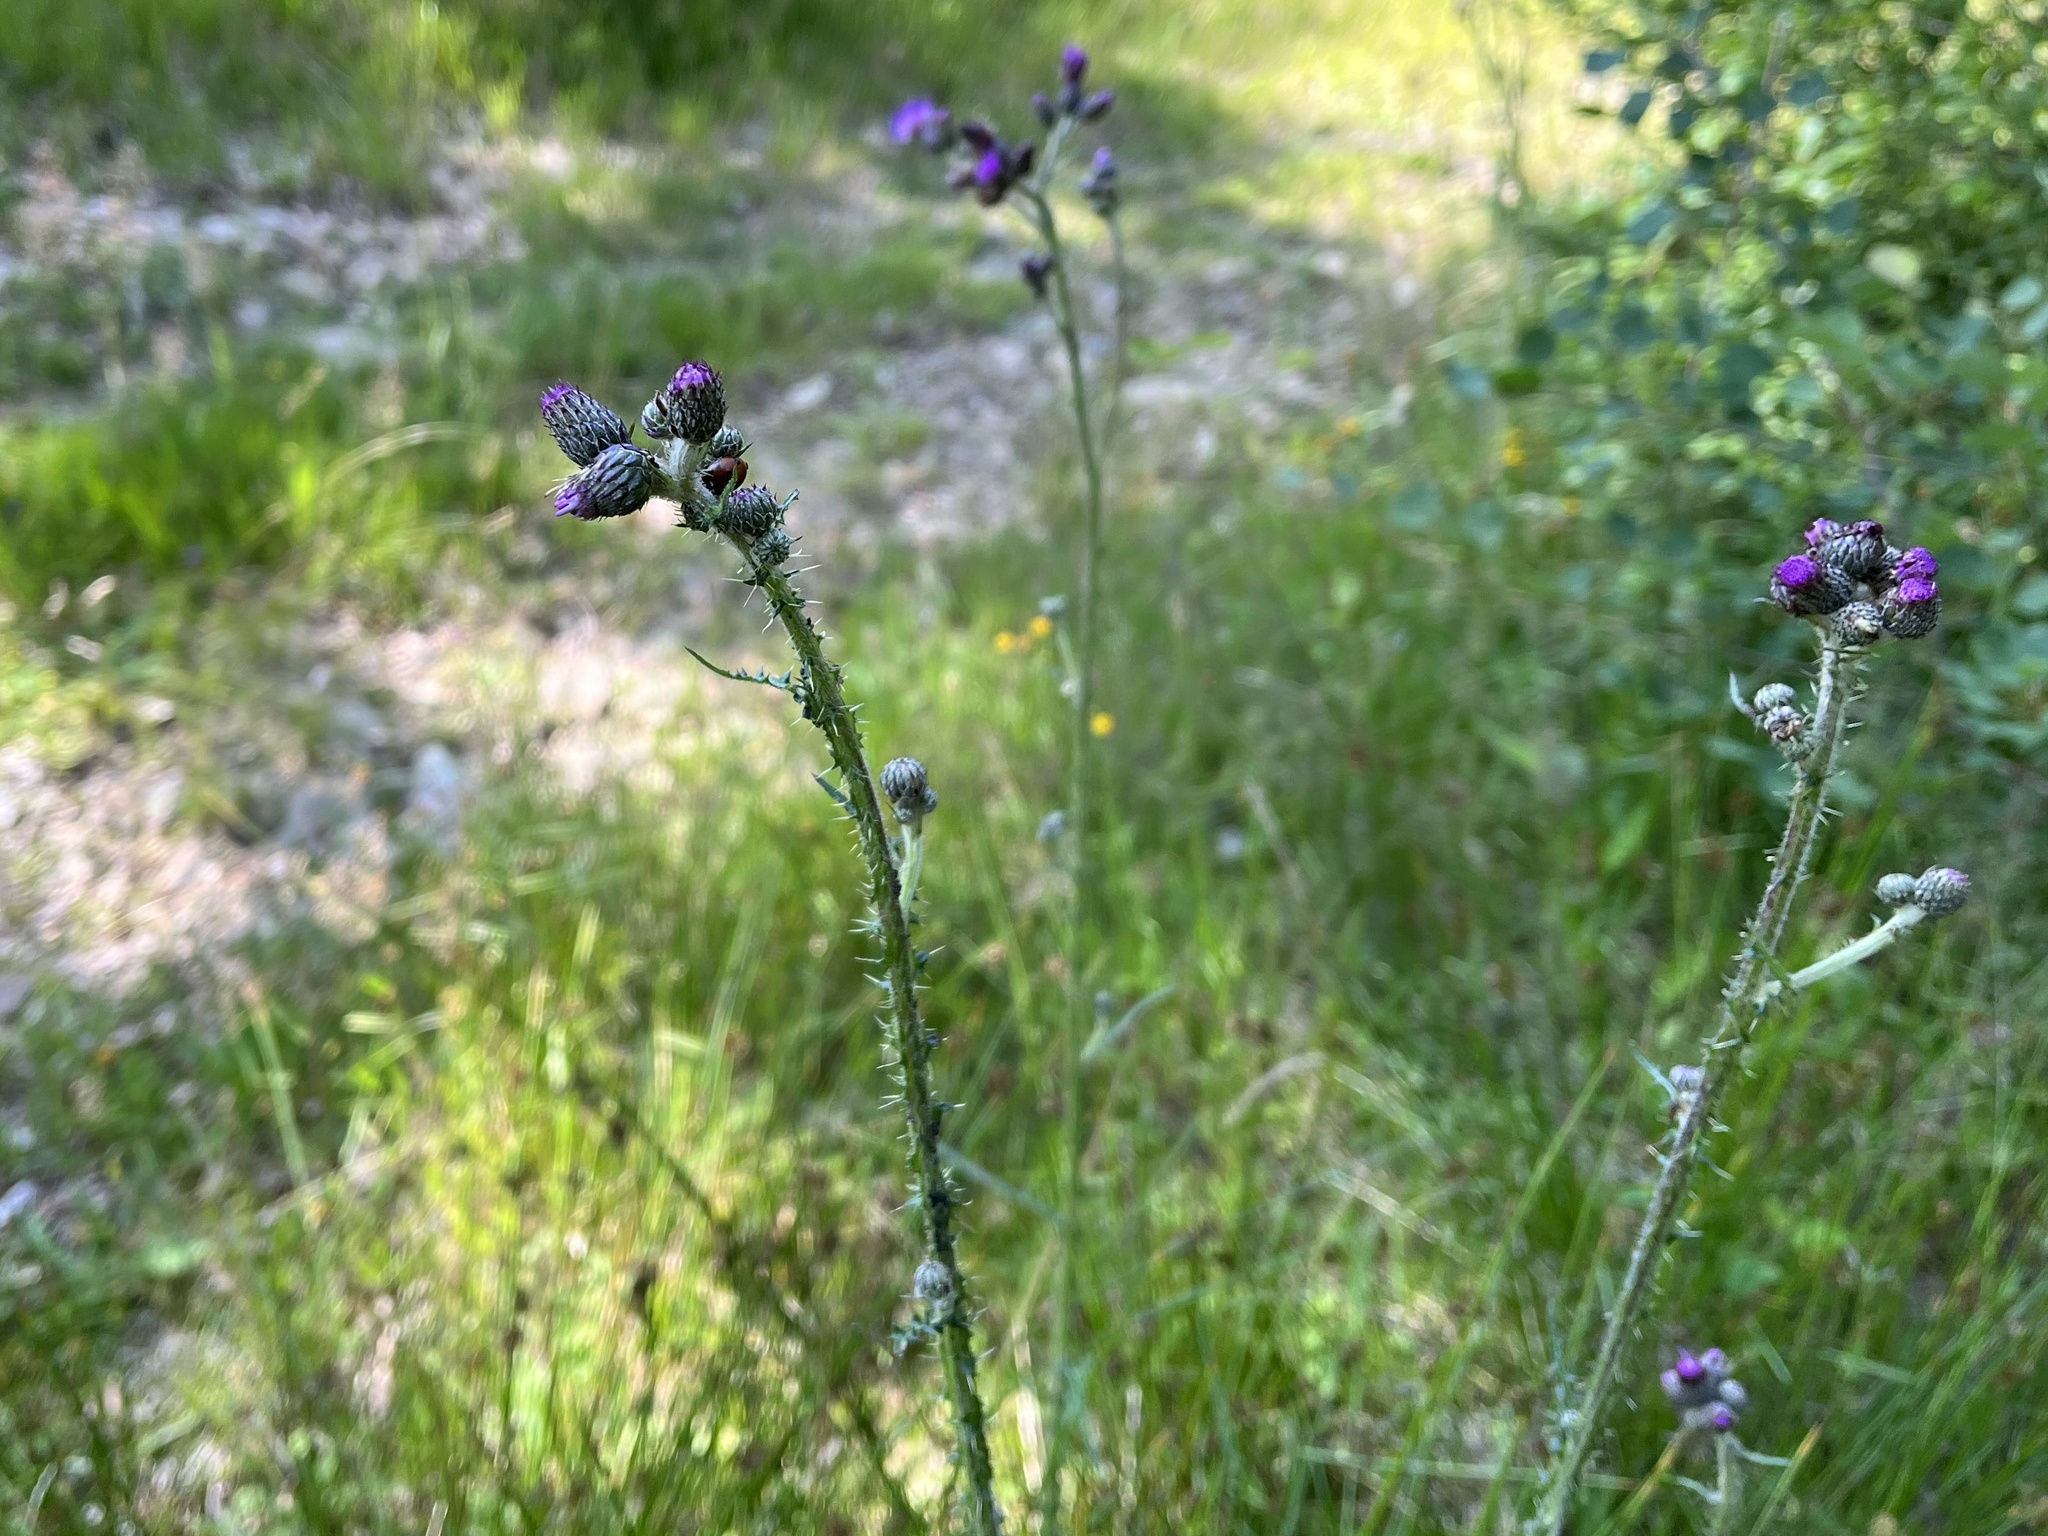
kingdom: Plantae
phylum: Tracheophyta
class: Magnoliopsida
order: Asterales
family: Asteraceae
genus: Cirsium
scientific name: Cirsium palustre
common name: Marsh thistle
